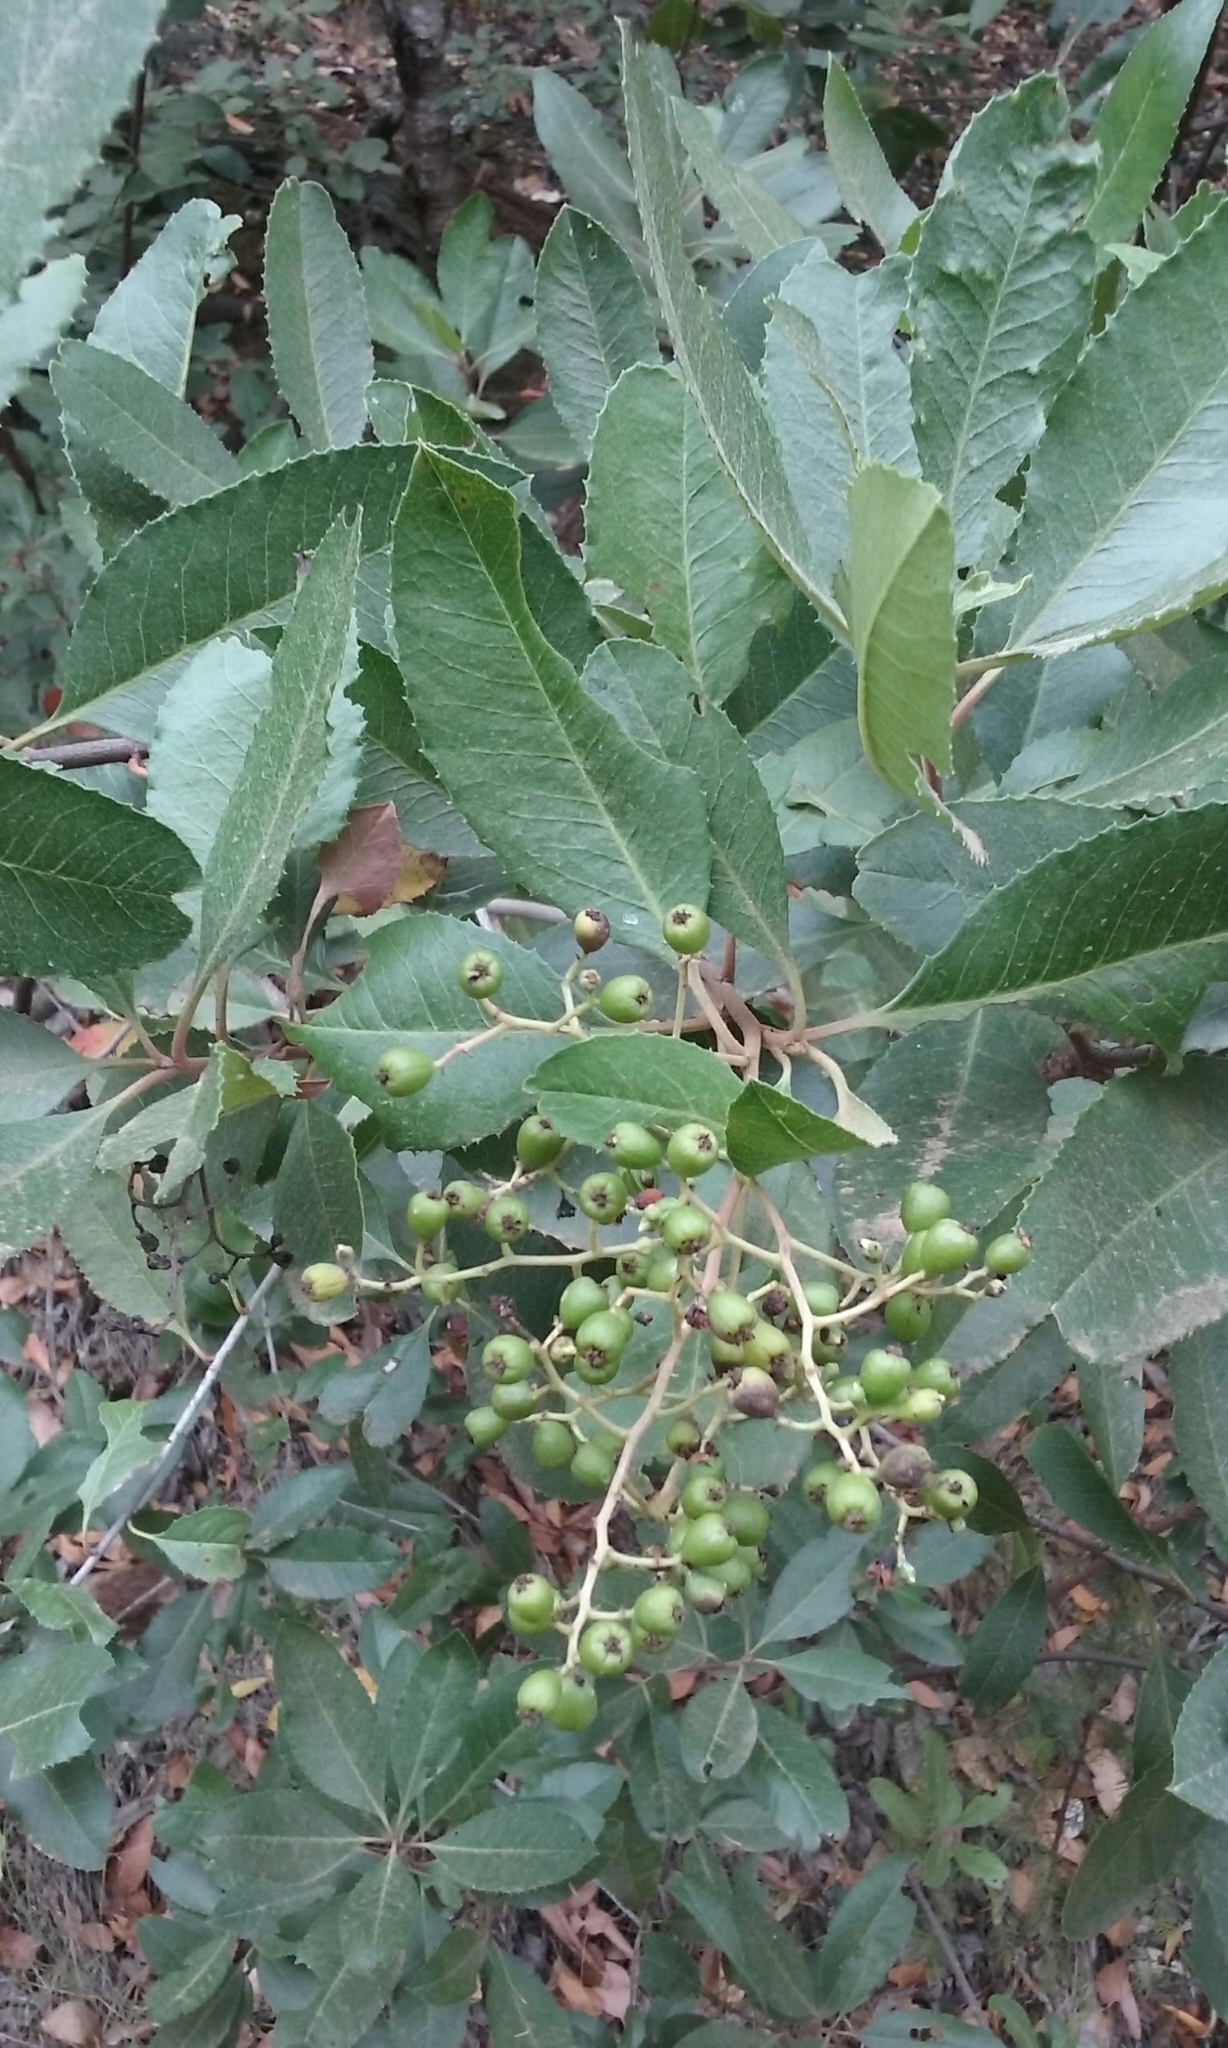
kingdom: Plantae
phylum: Tracheophyta
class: Magnoliopsida
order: Rosales
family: Rosaceae
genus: Heteromeles
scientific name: Heteromeles arbutifolia
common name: California-holly
